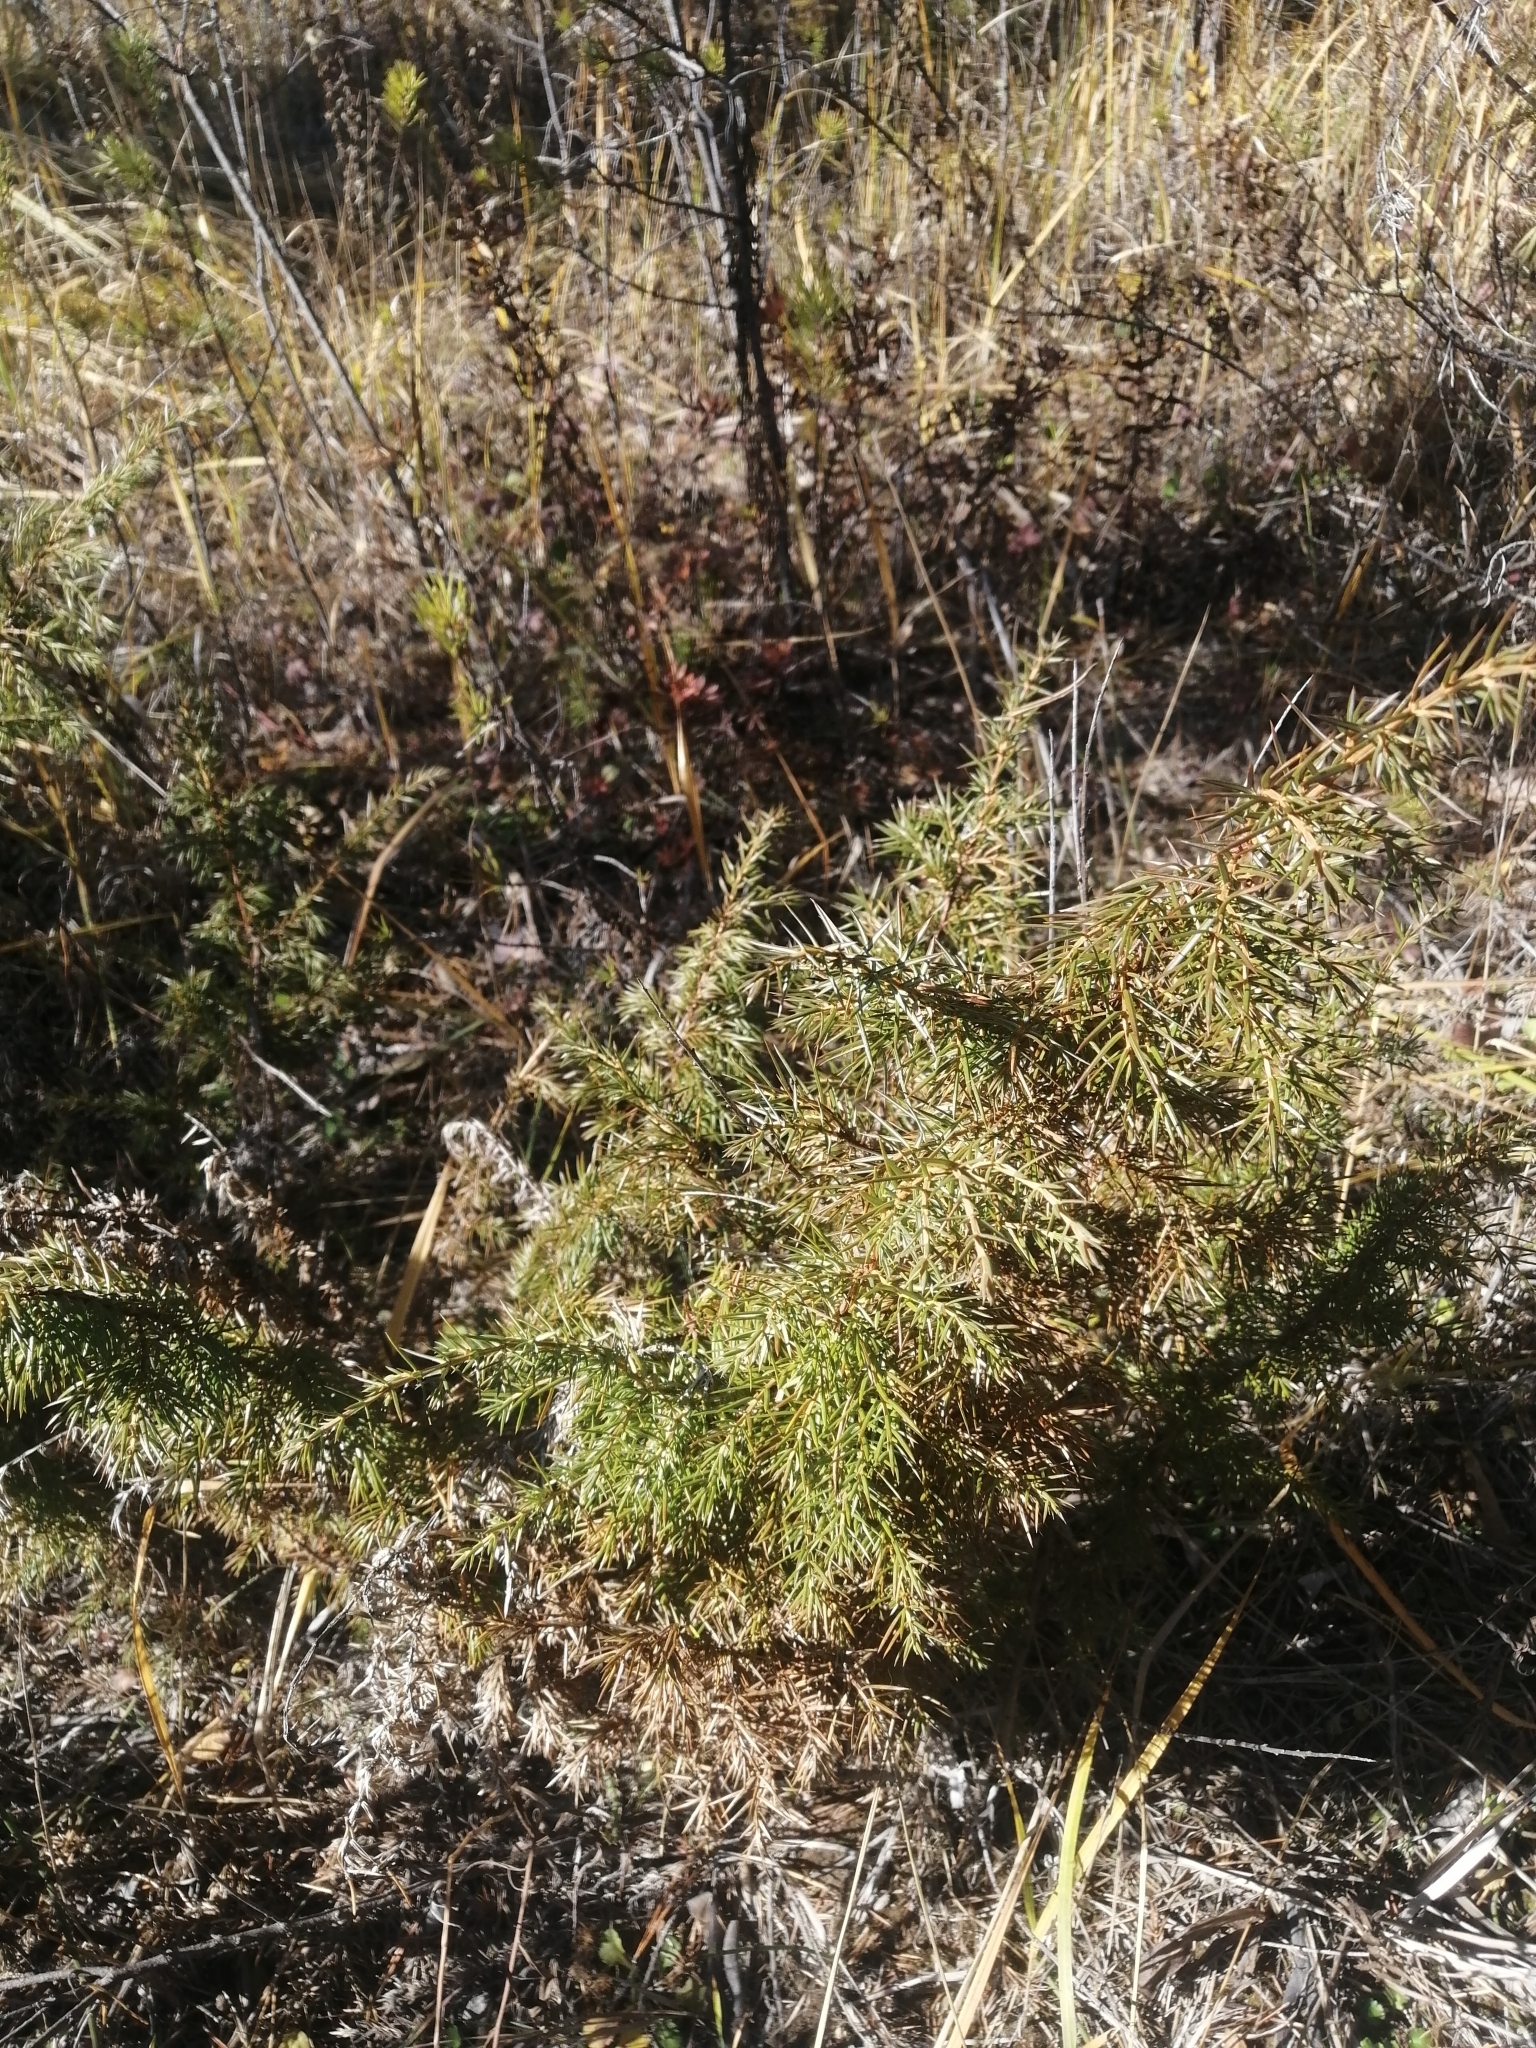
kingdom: Plantae
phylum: Tracheophyta
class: Pinopsida
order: Pinales
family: Cupressaceae
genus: Juniperus
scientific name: Juniperus communis
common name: Common juniper
